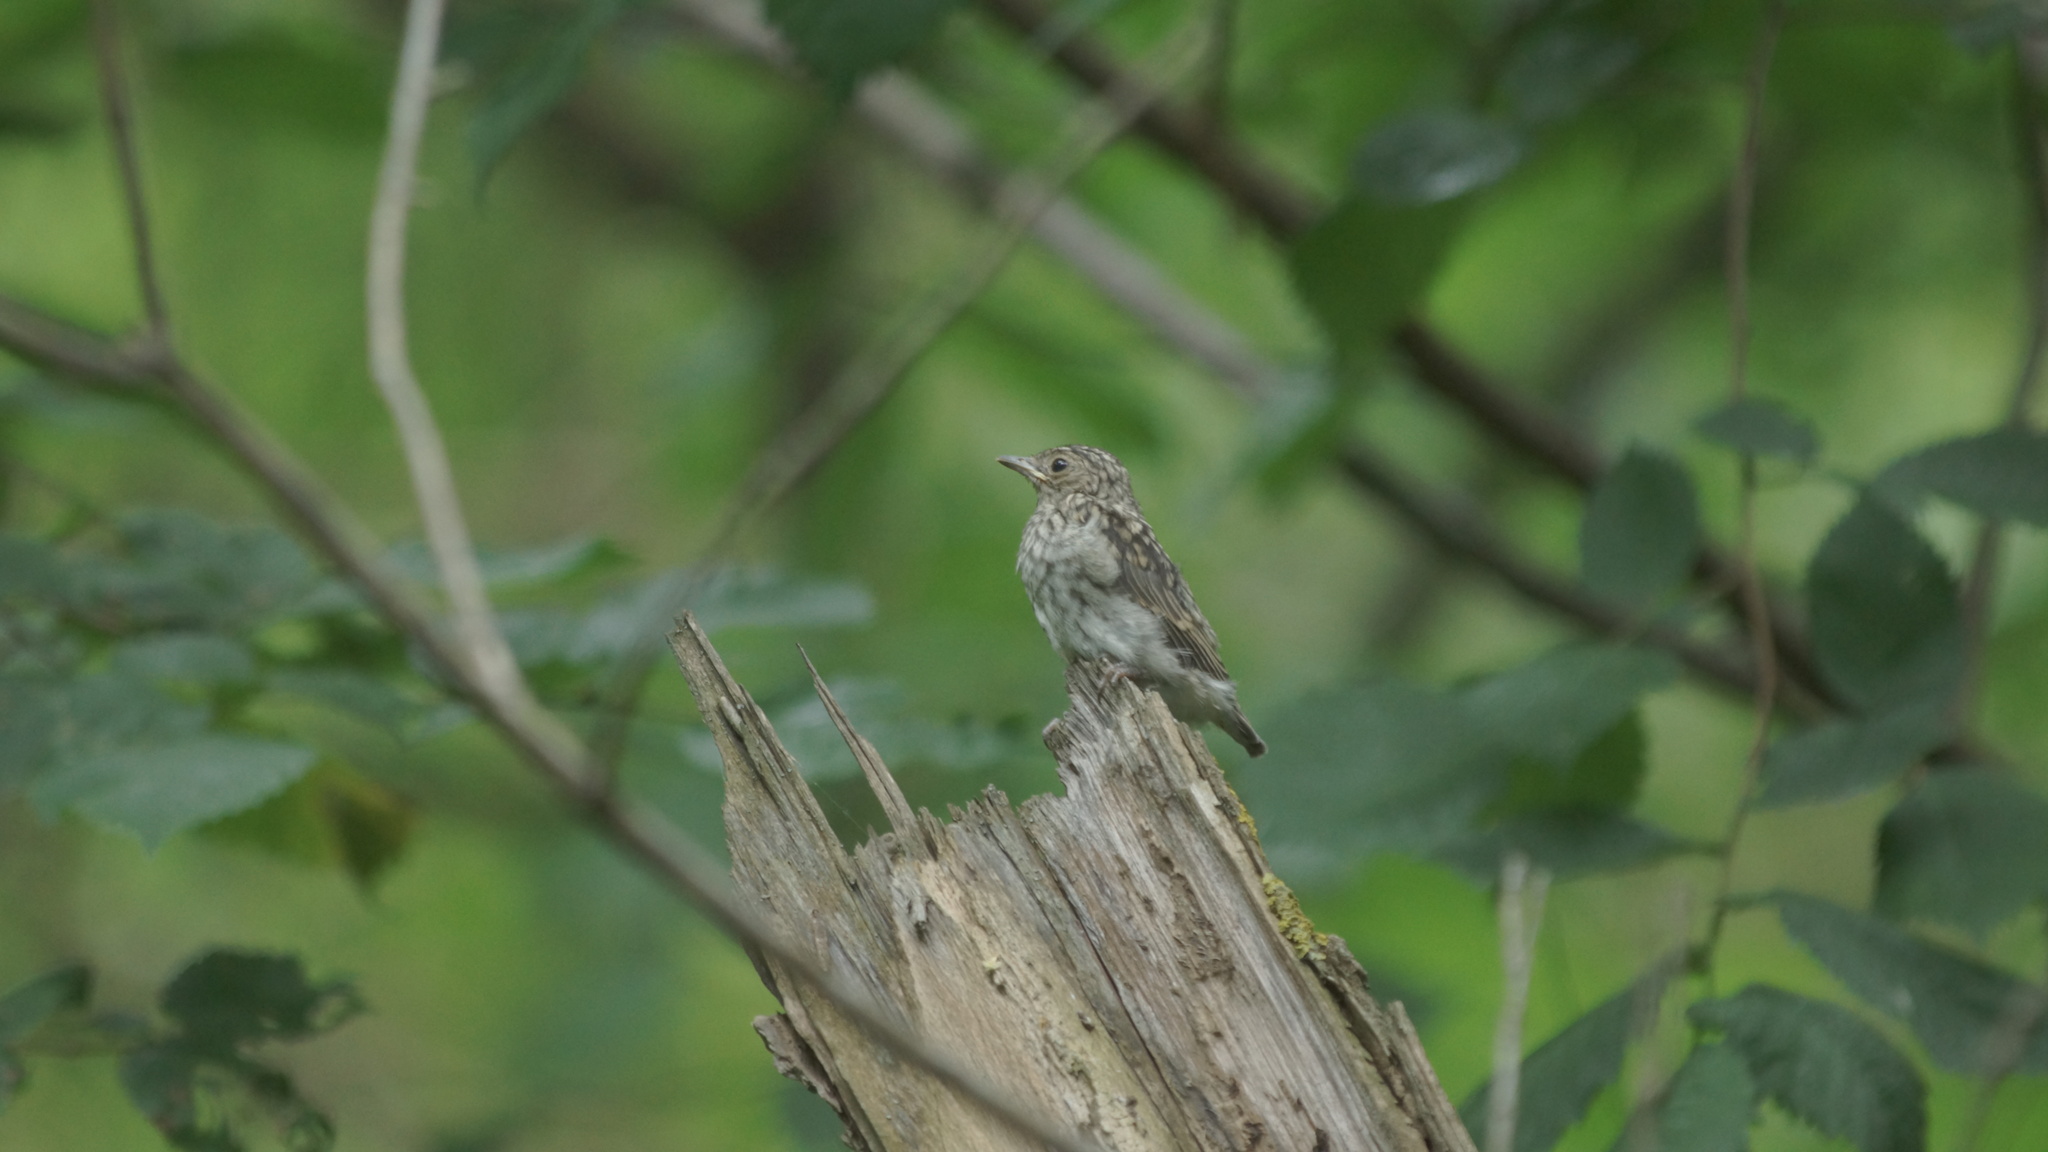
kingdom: Animalia
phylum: Chordata
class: Aves
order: Passeriformes
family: Muscicapidae
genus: Muscicapa
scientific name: Muscicapa striata
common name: Spotted flycatcher
